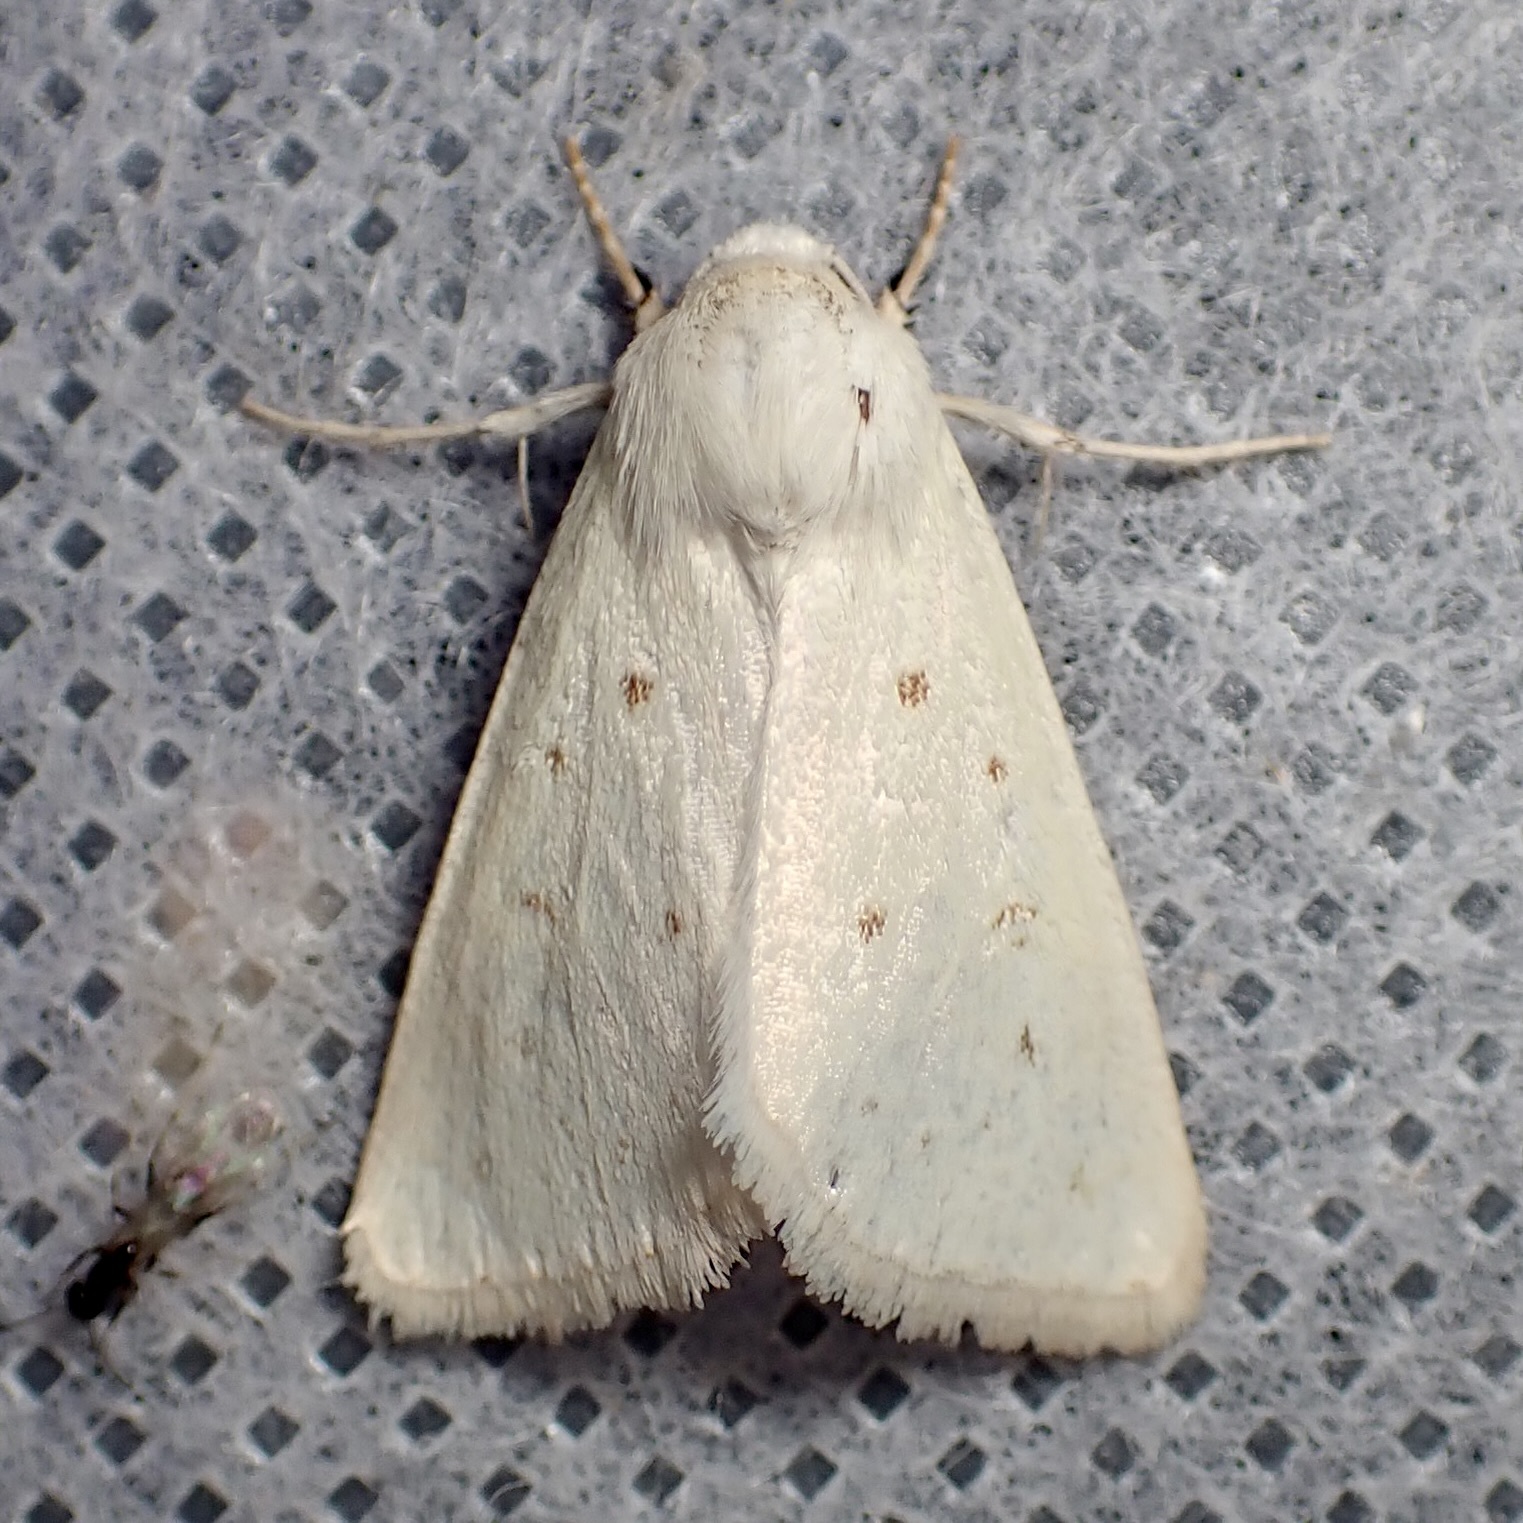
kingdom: Animalia
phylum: Arthropoda
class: Insecta
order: Lepidoptera
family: Noctuidae
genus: Schinia
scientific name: Schinia luxa
